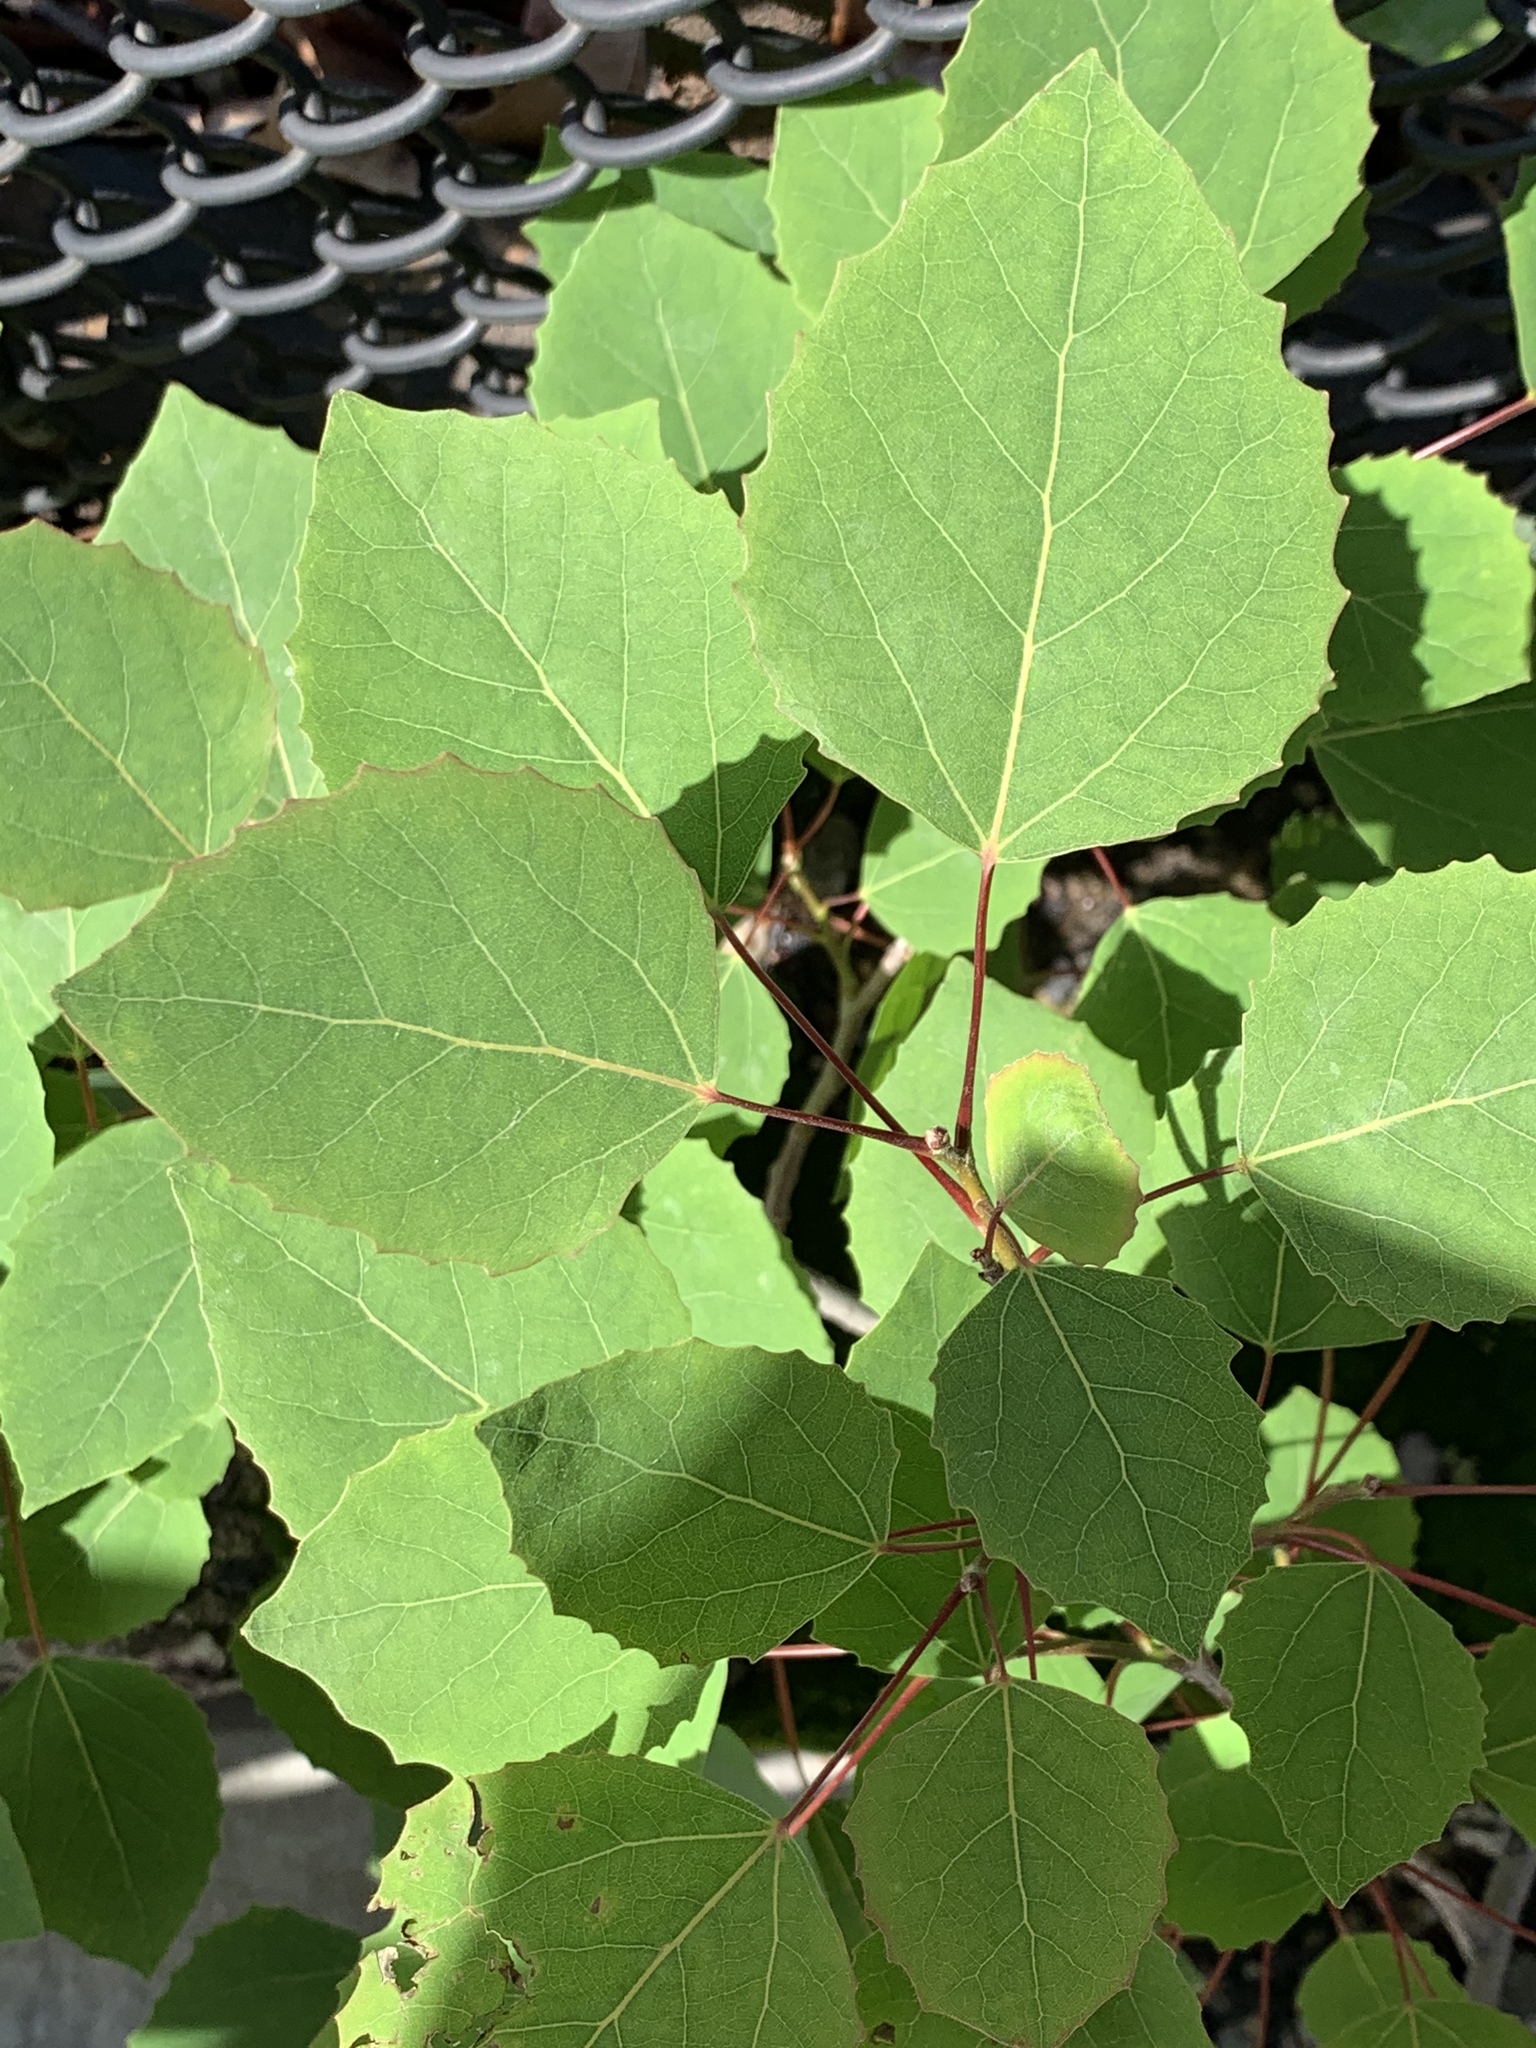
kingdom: Plantae
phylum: Tracheophyta
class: Magnoliopsida
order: Malpighiales
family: Salicaceae
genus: Populus
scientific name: Populus grandidentata
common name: Bigtooth aspen
